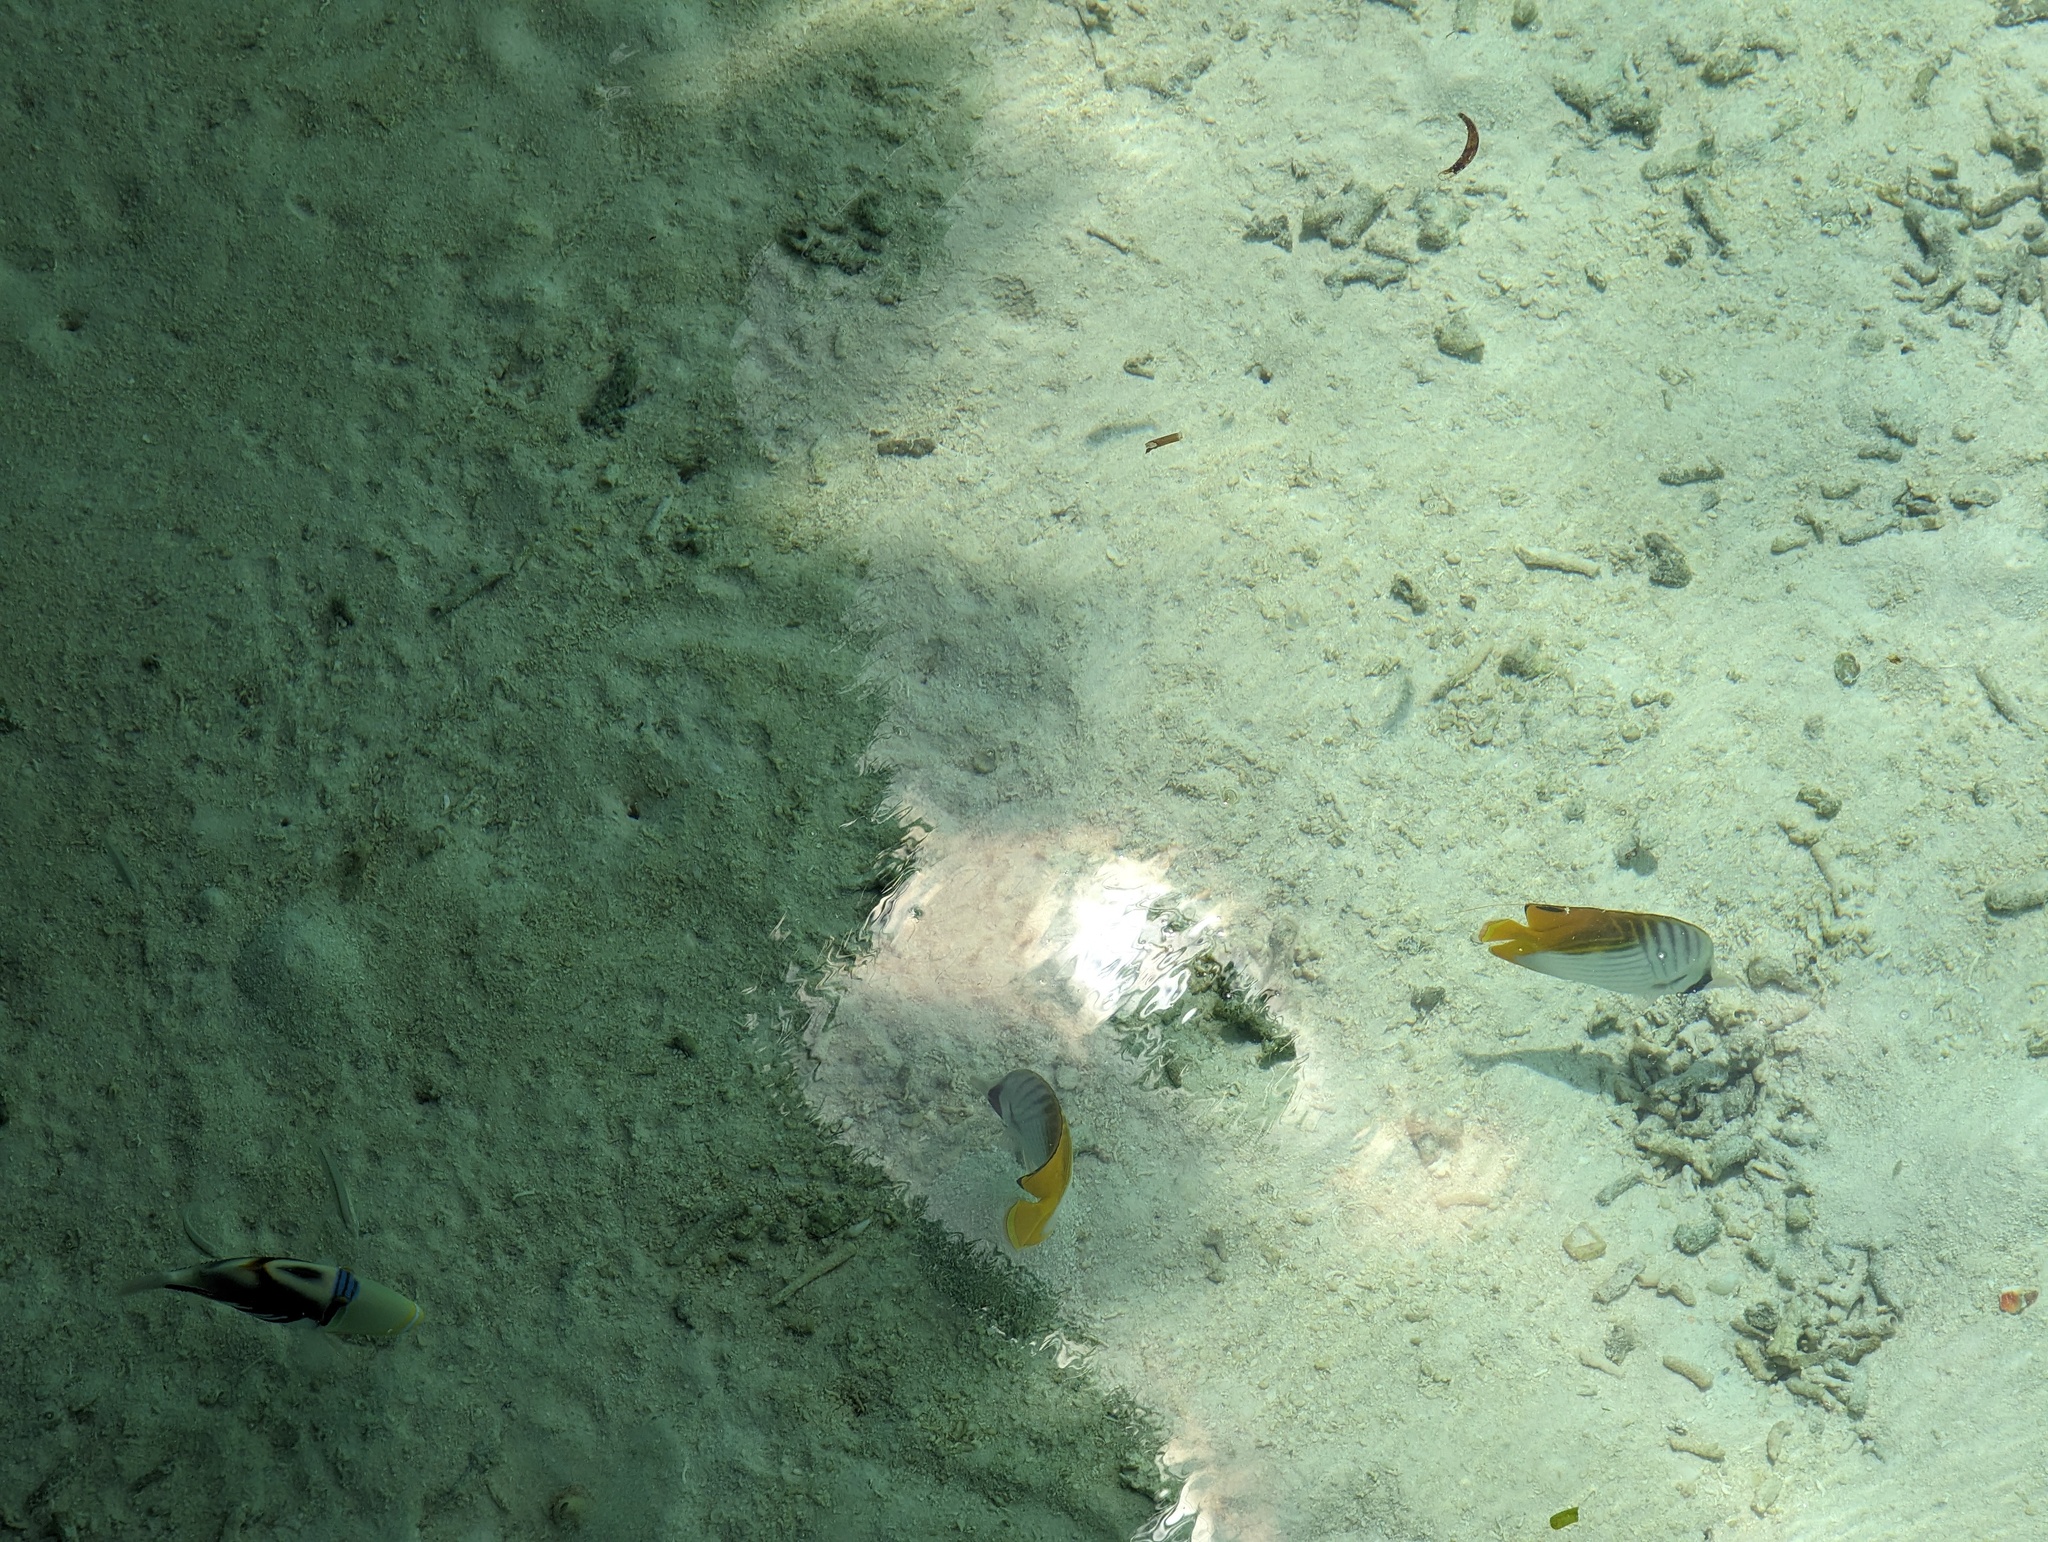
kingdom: Animalia
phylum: Chordata
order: Perciformes
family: Chaetodontidae
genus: Chaetodon
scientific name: Chaetodon auriga
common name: Threadfin butterflyfish
